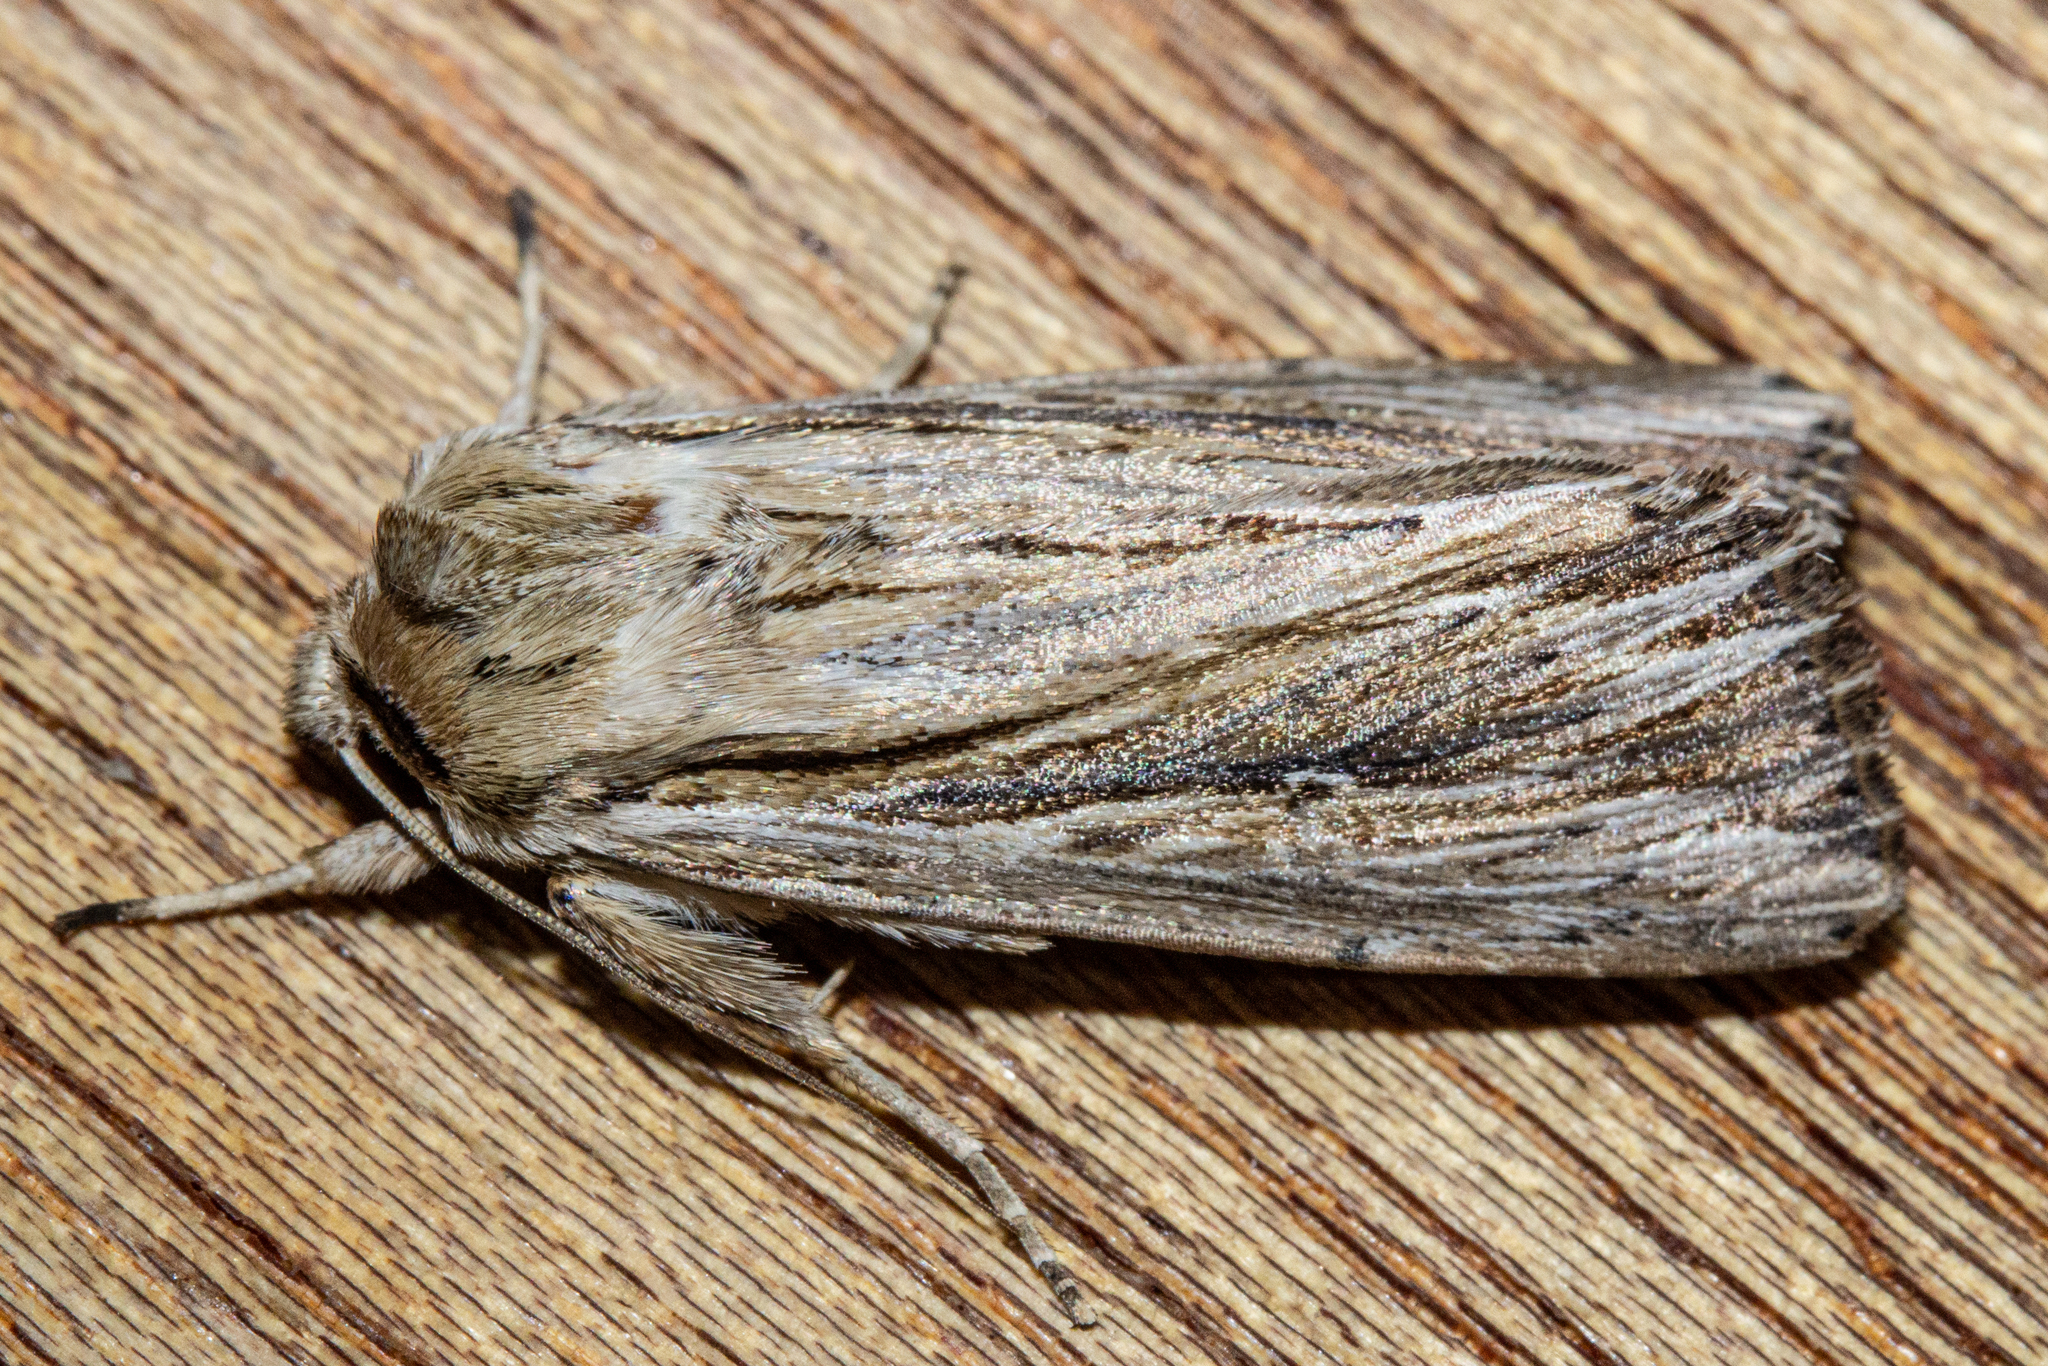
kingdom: Animalia
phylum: Arthropoda
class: Insecta
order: Lepidoptera
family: Noctuidae
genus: Persectania
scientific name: Persectania aversa
